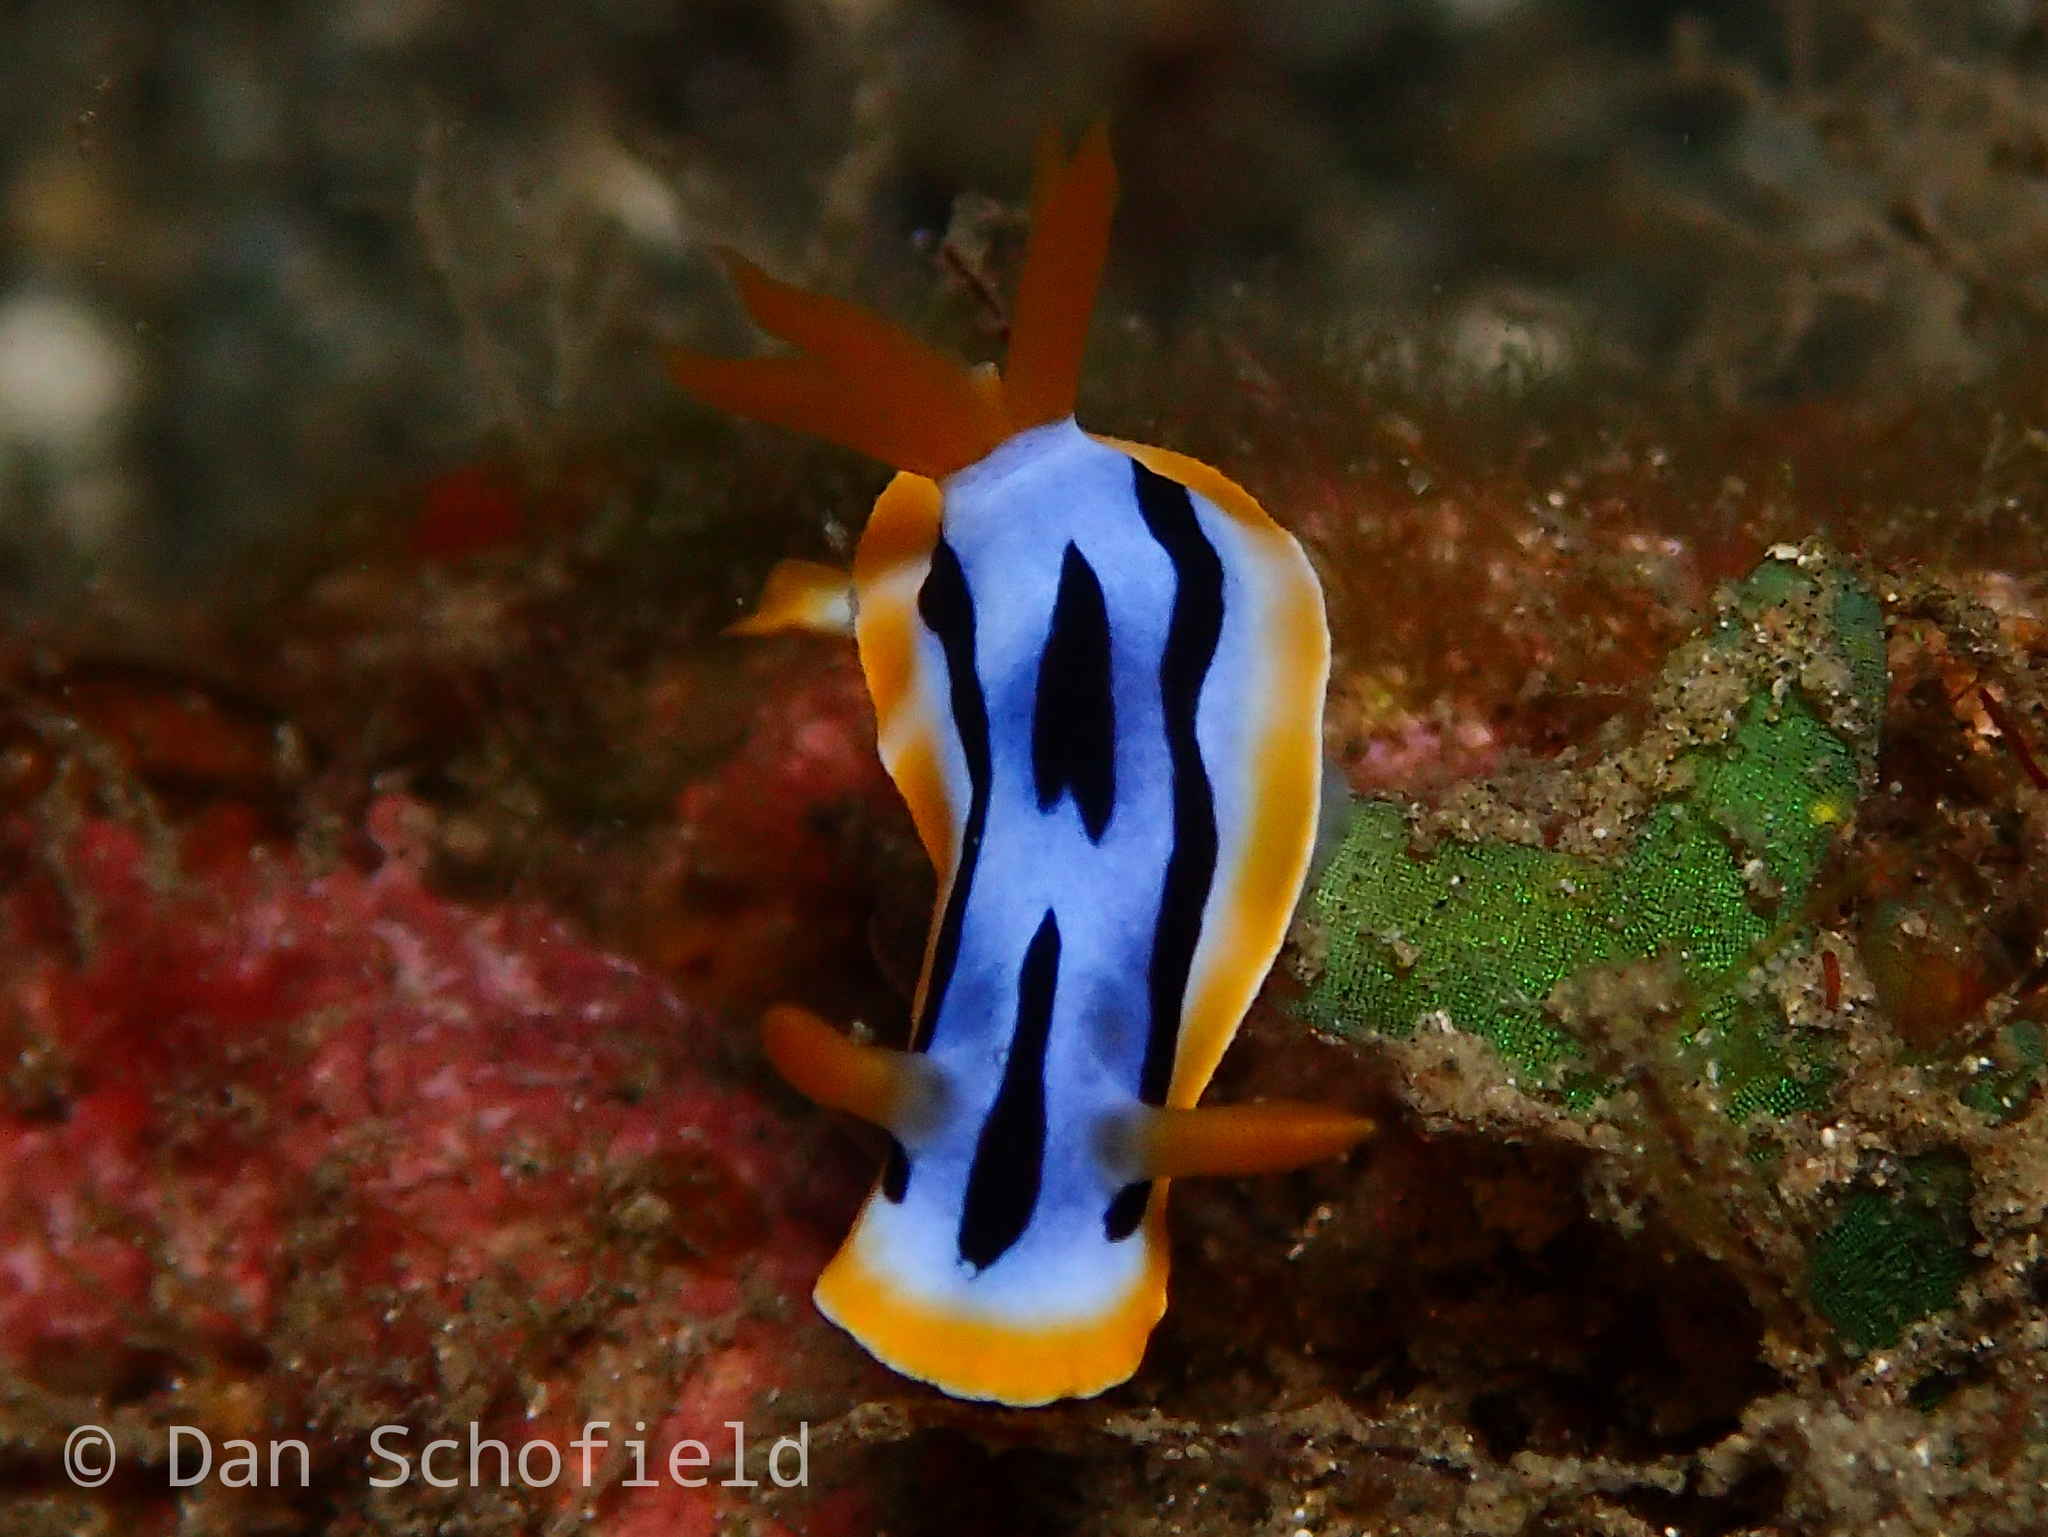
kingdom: Animalia
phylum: Mollusca
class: Gastropoda
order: Nudibranchia
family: Chromodorididae
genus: Chromodoris
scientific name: Chromodoris strigata
